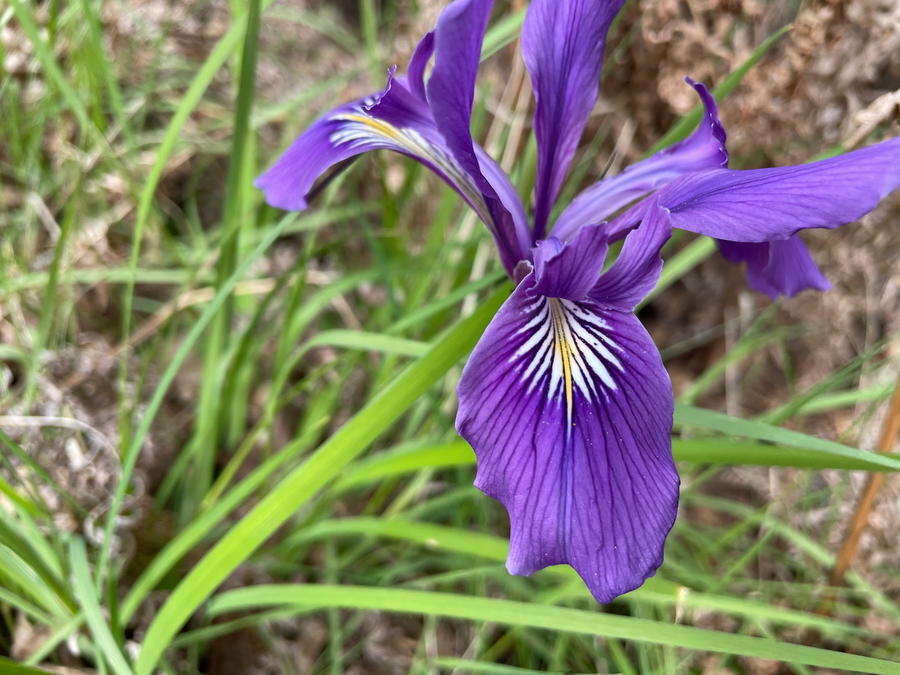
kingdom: Plantae
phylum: Tracheophyta
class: Liliopsida
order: Asparagales
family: Iridaceae
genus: Iris
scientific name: Iris tenax
